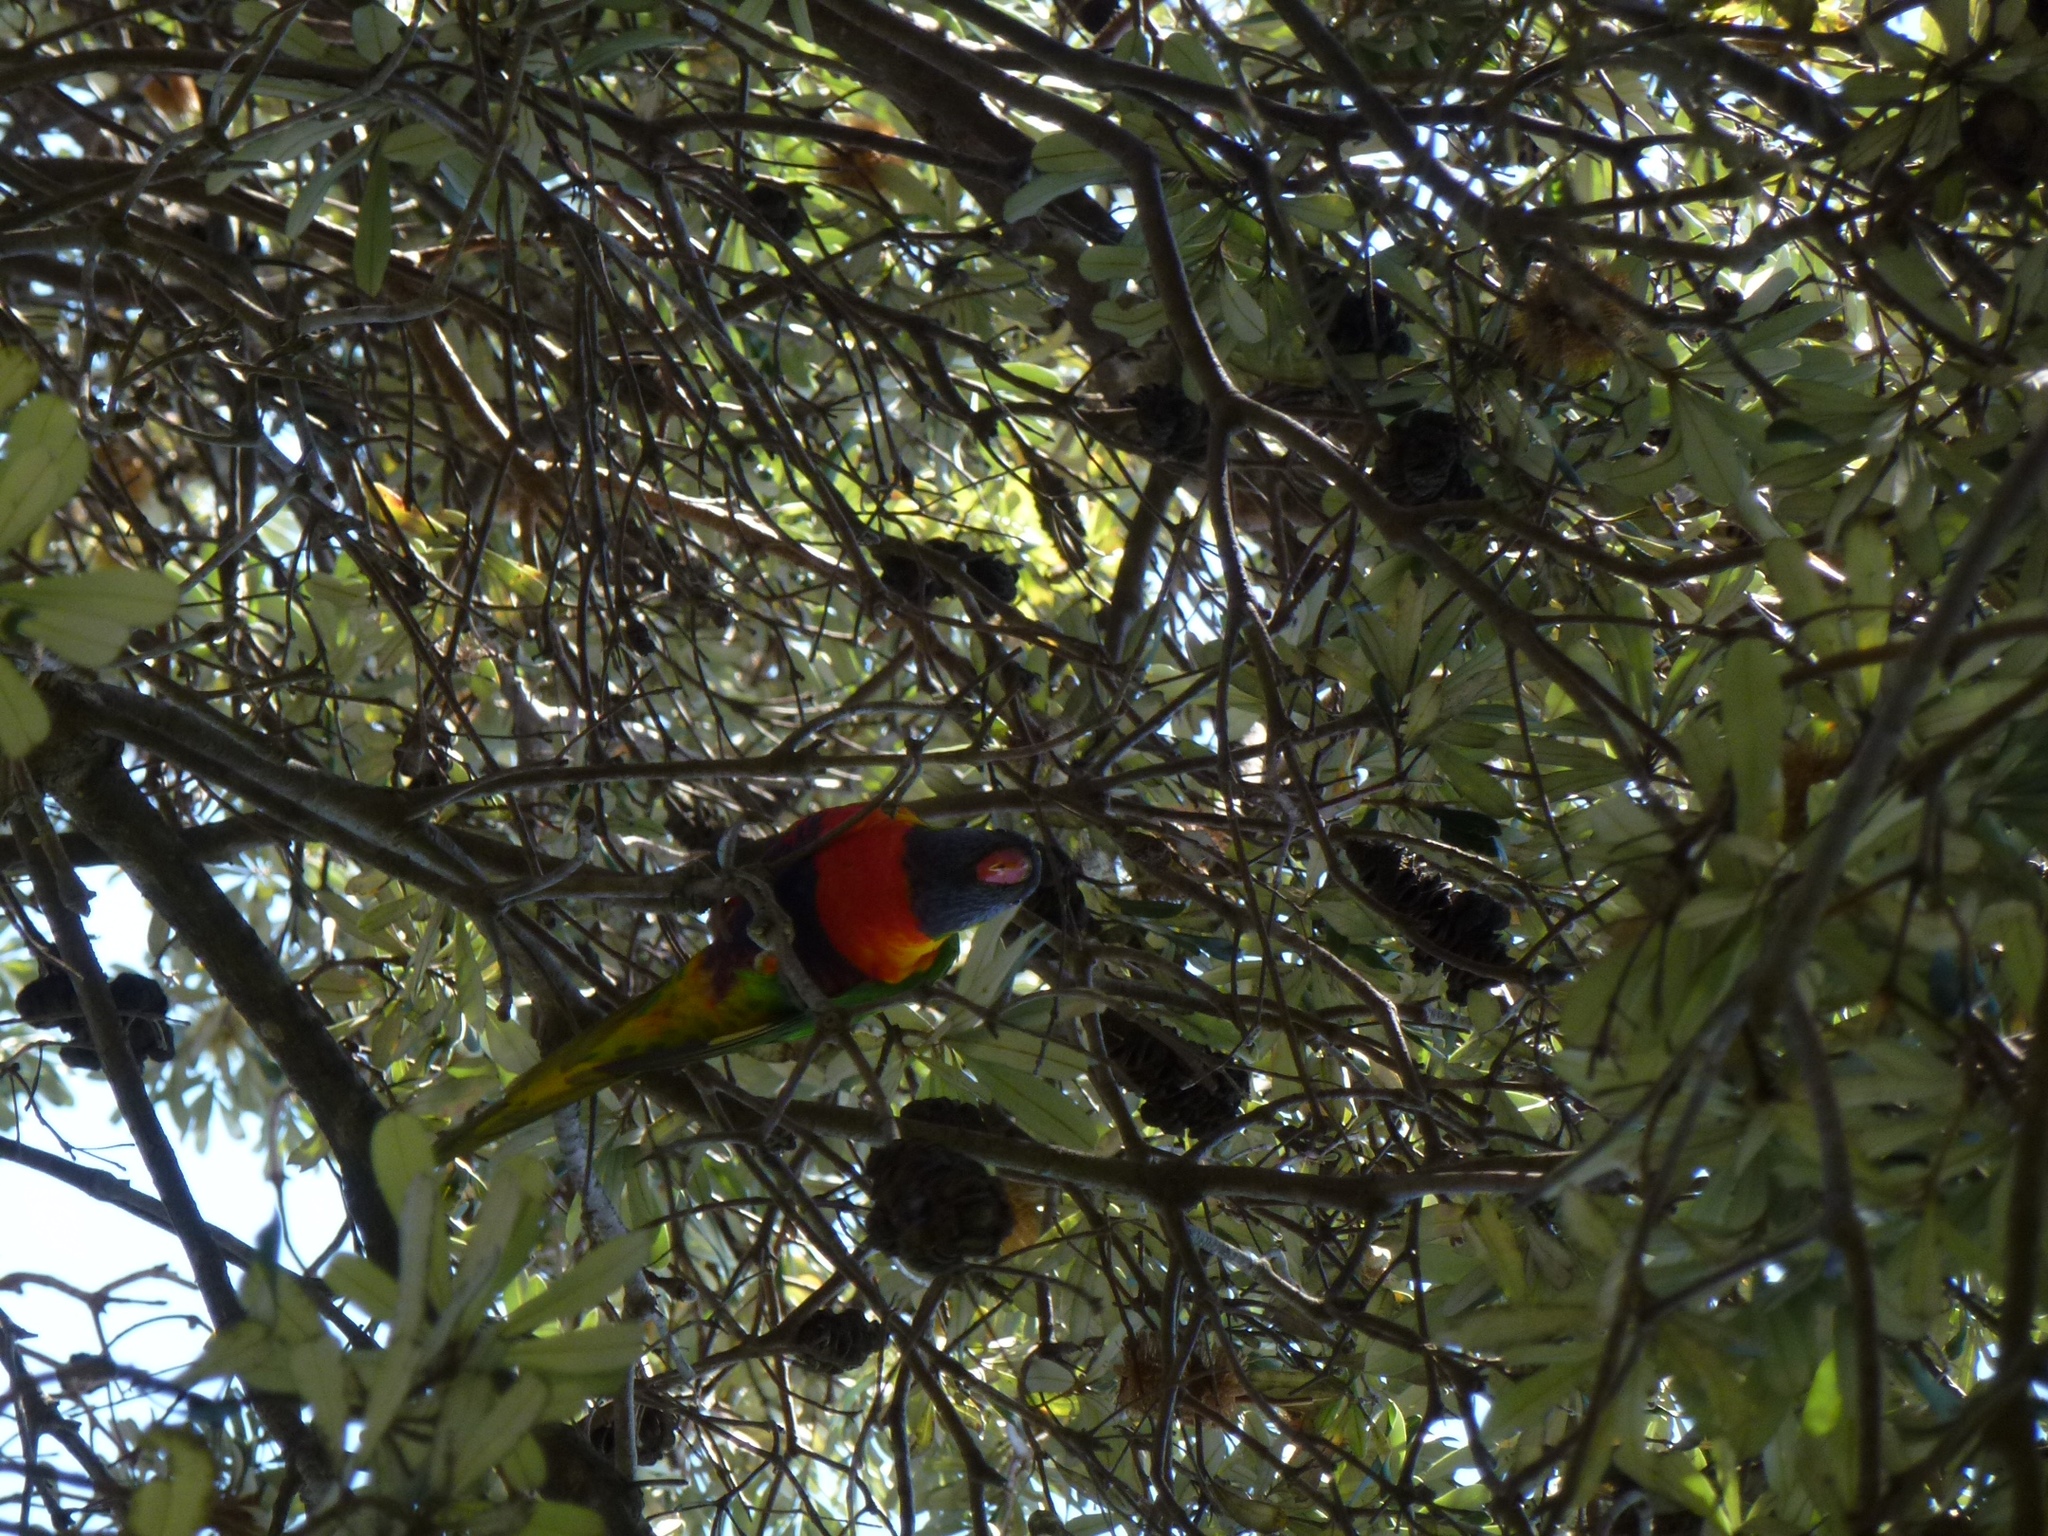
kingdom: Animalia
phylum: Chordata
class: Aves
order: Psittaciformes
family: Psittacidae
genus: Trichoglossus
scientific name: Trichoglossus haematodus
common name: Coconut lorikeet
